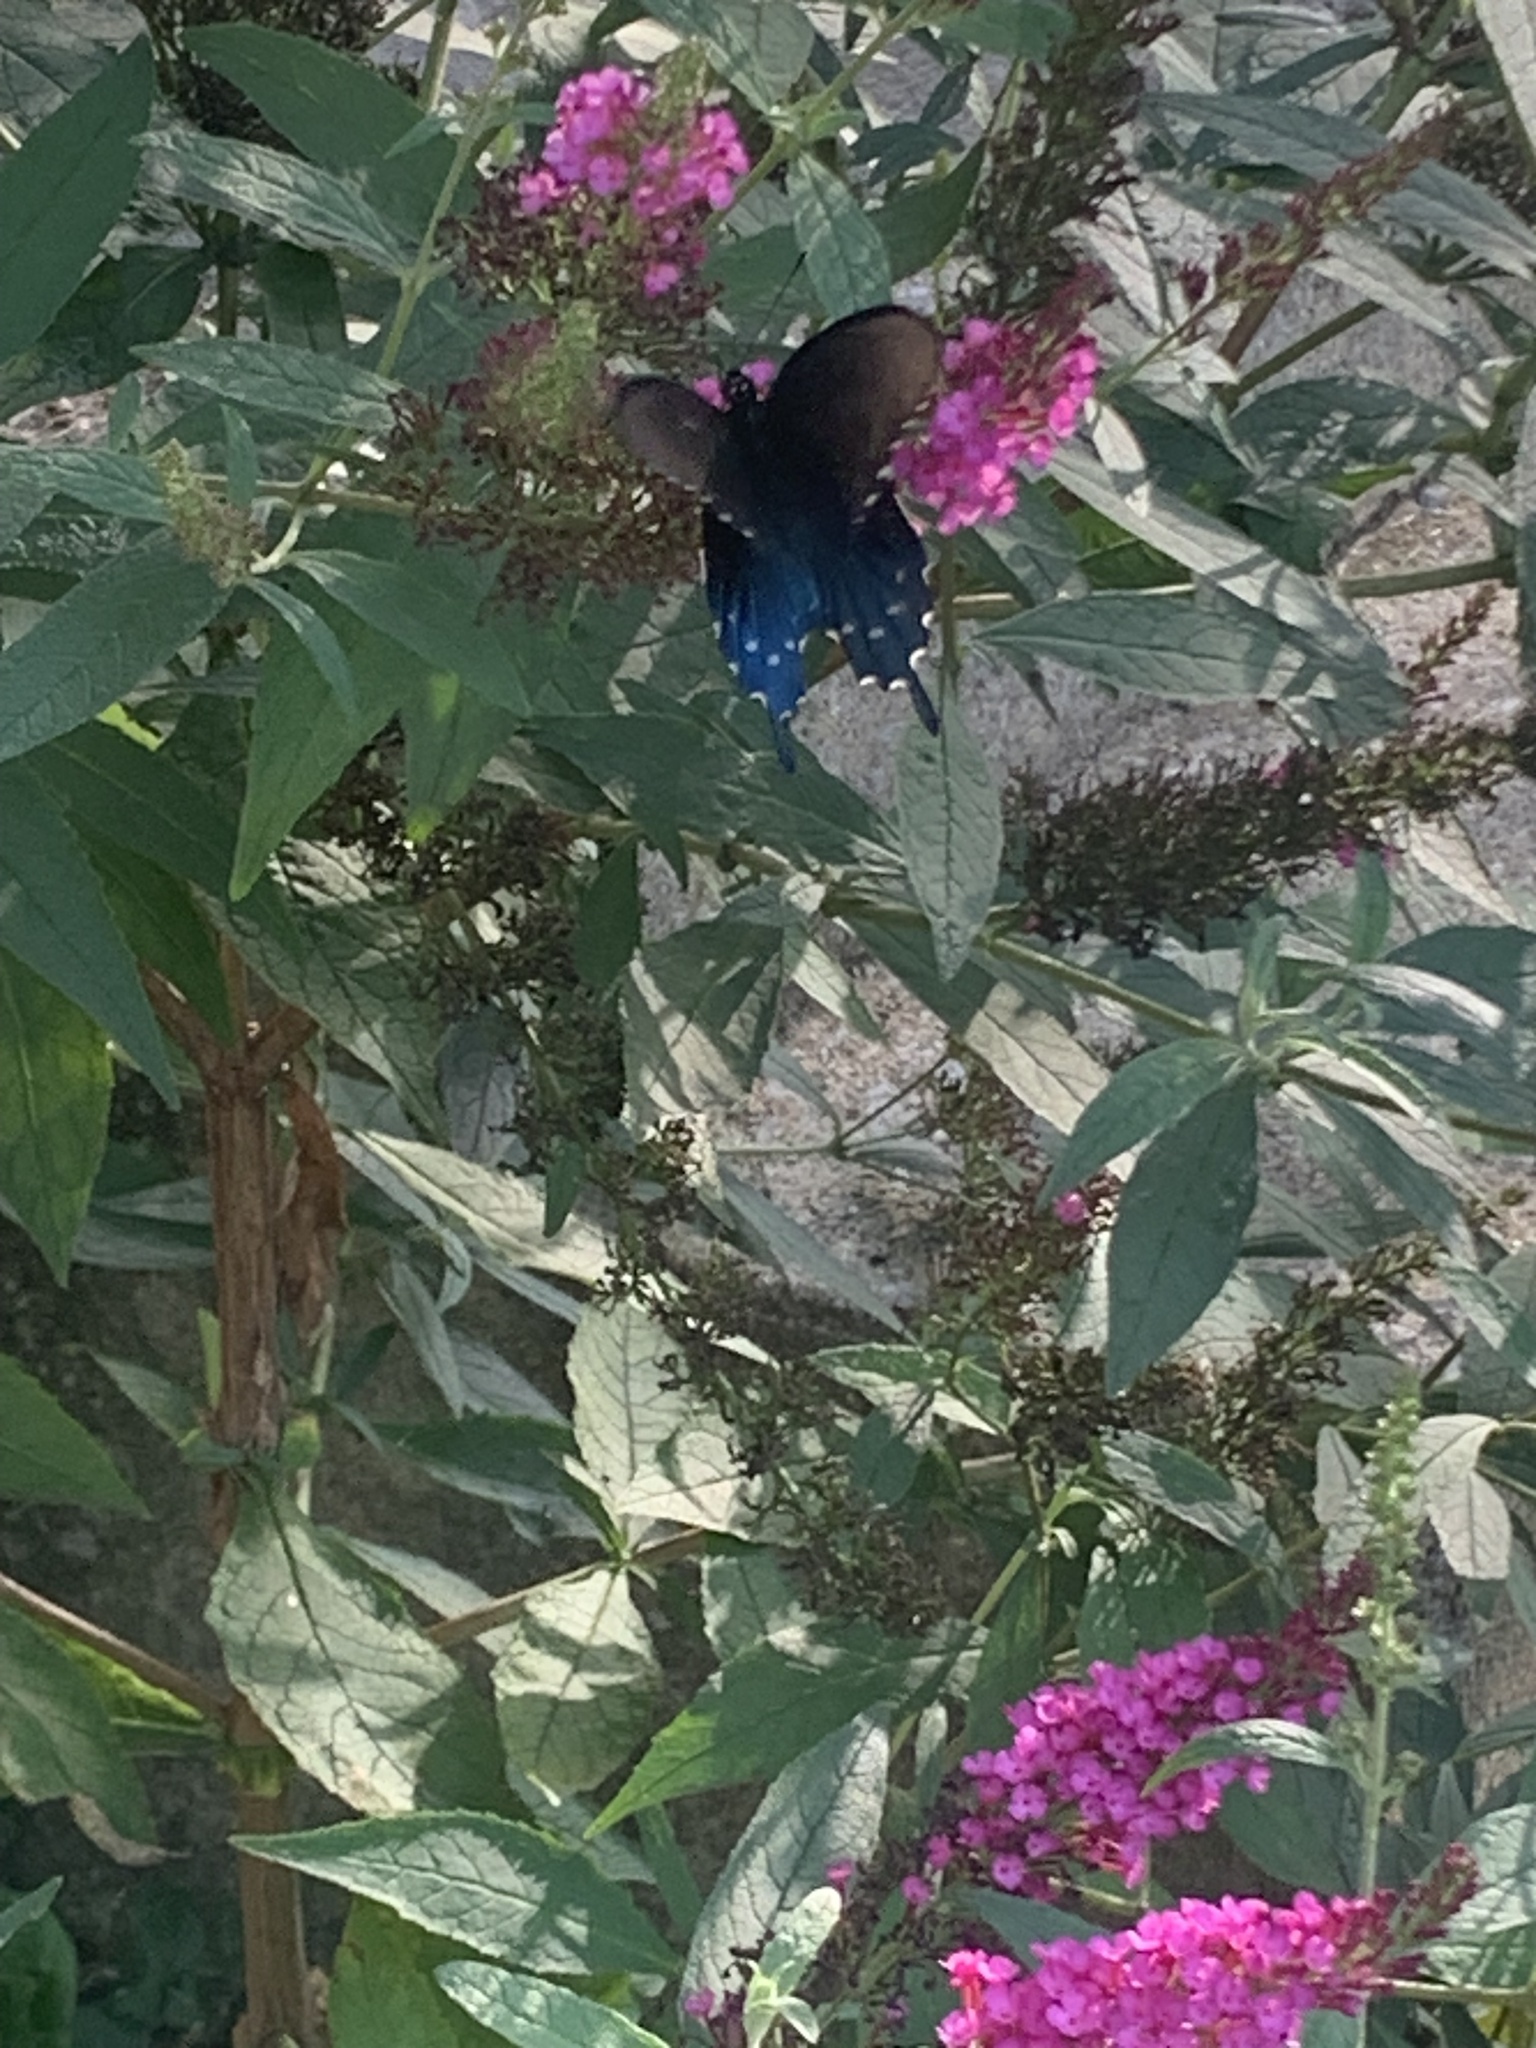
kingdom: Animalia
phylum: Arthropoda
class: Insecta
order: Lepidoptera
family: Papilionidae
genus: Battus
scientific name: Battus philenor
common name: Pipevine swallowtail
